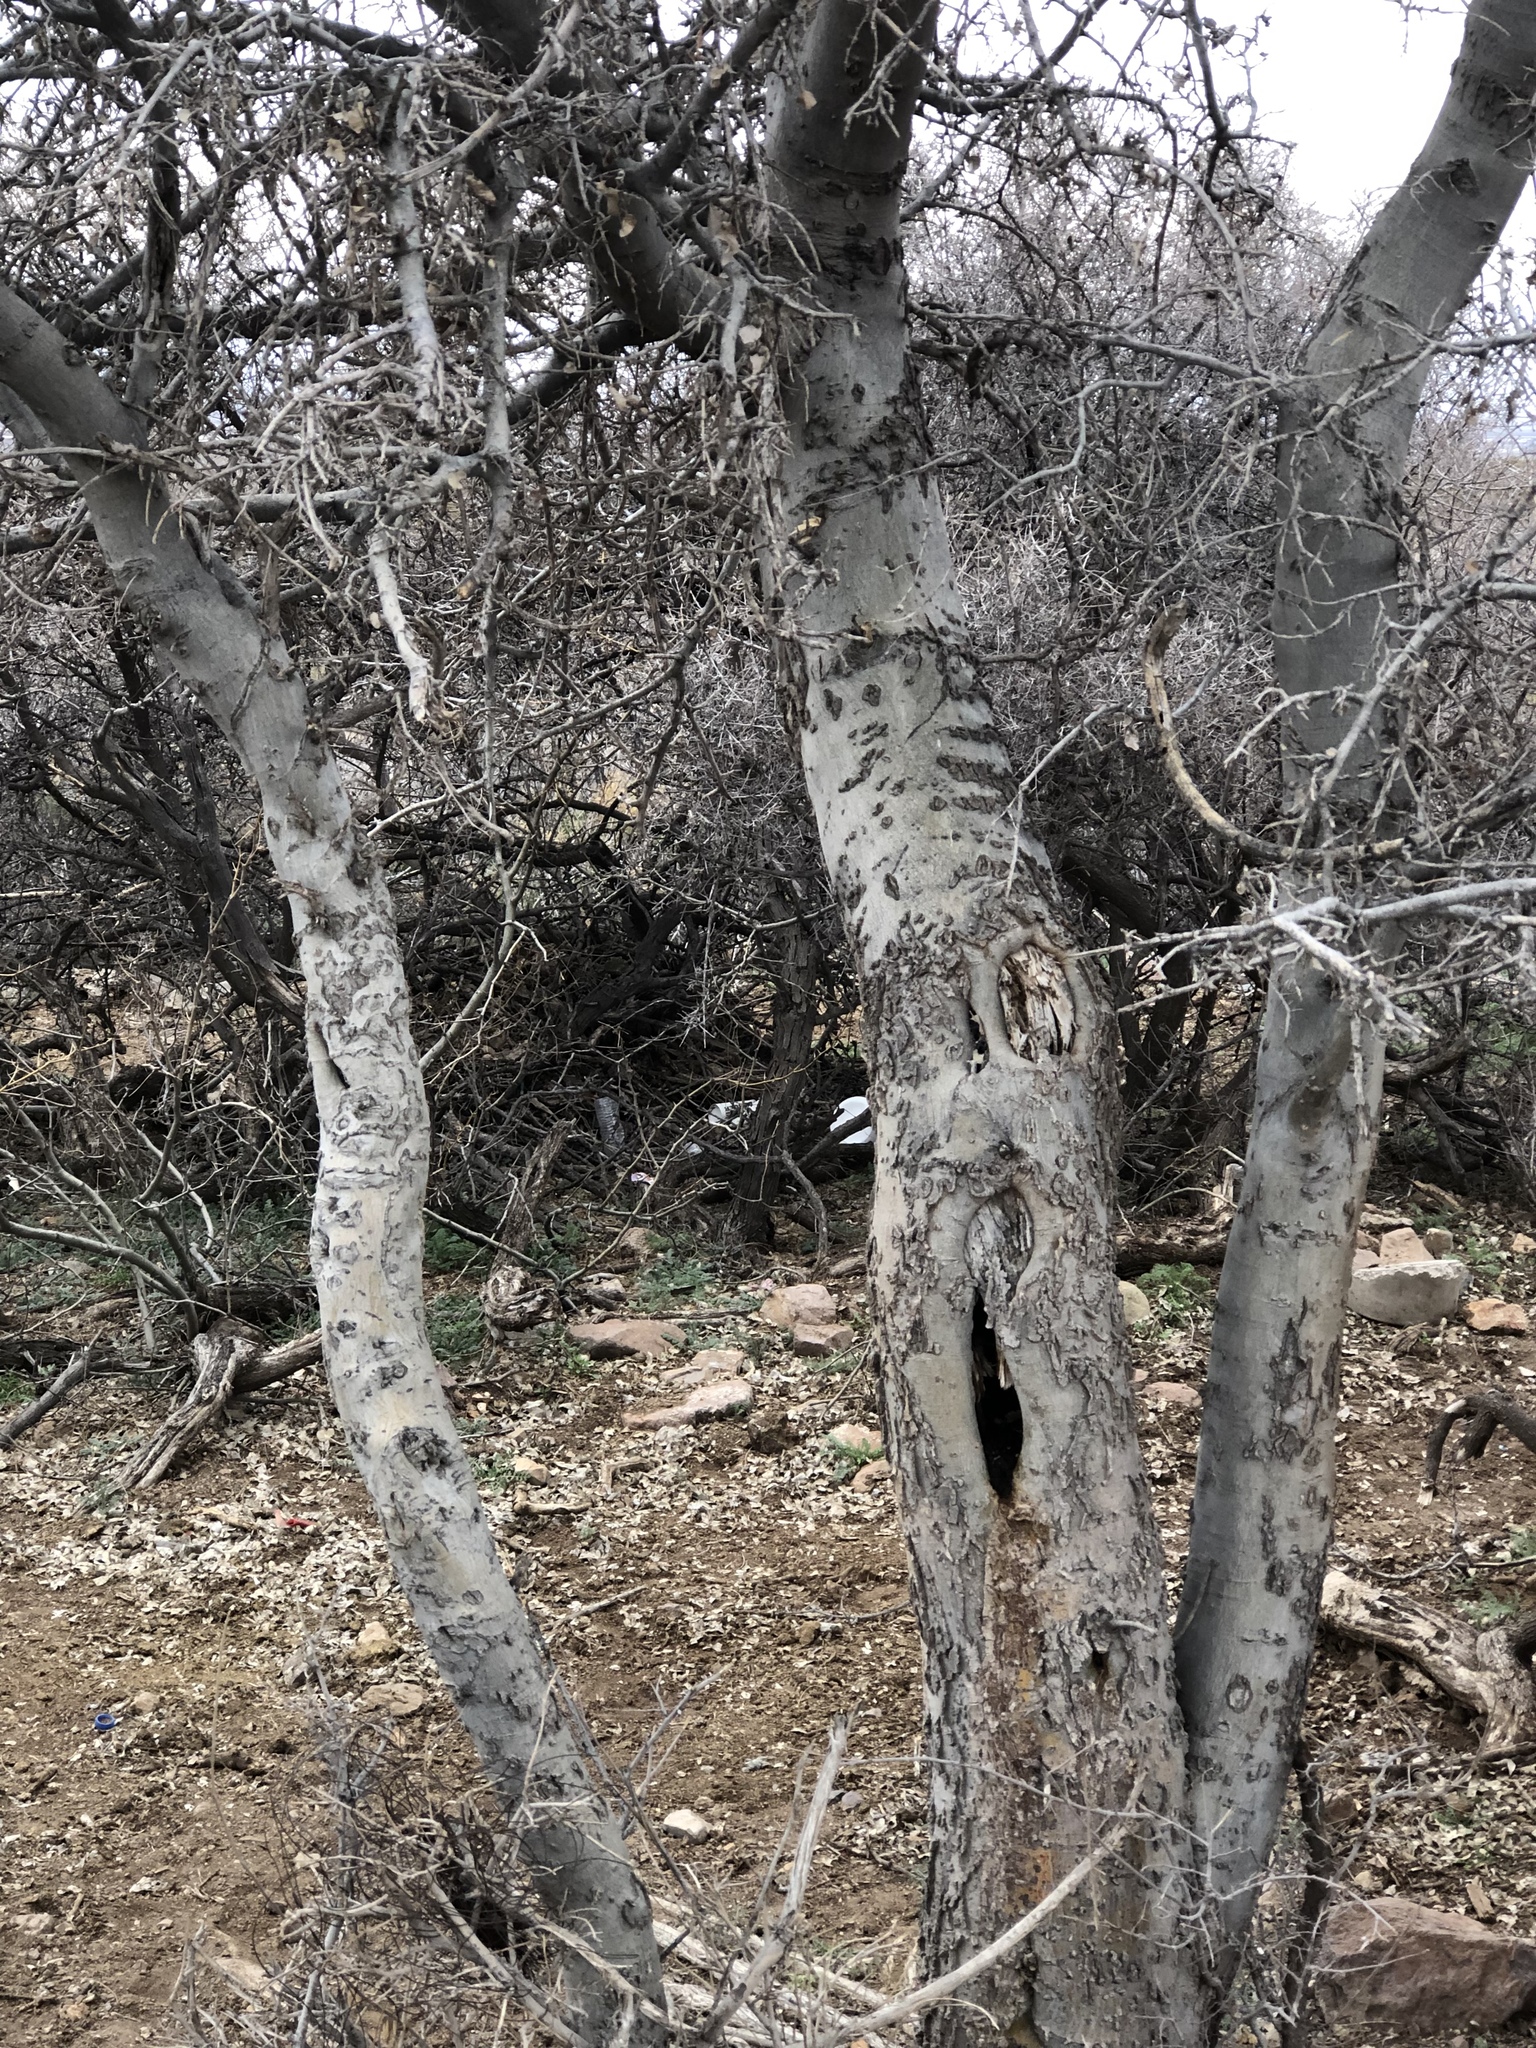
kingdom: Plantae
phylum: Tracheophyta
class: Magnoliopsida
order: Rosales
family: Cannabaceae
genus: Celtis
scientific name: Celtis reticulata
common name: Netleaf hackberry
